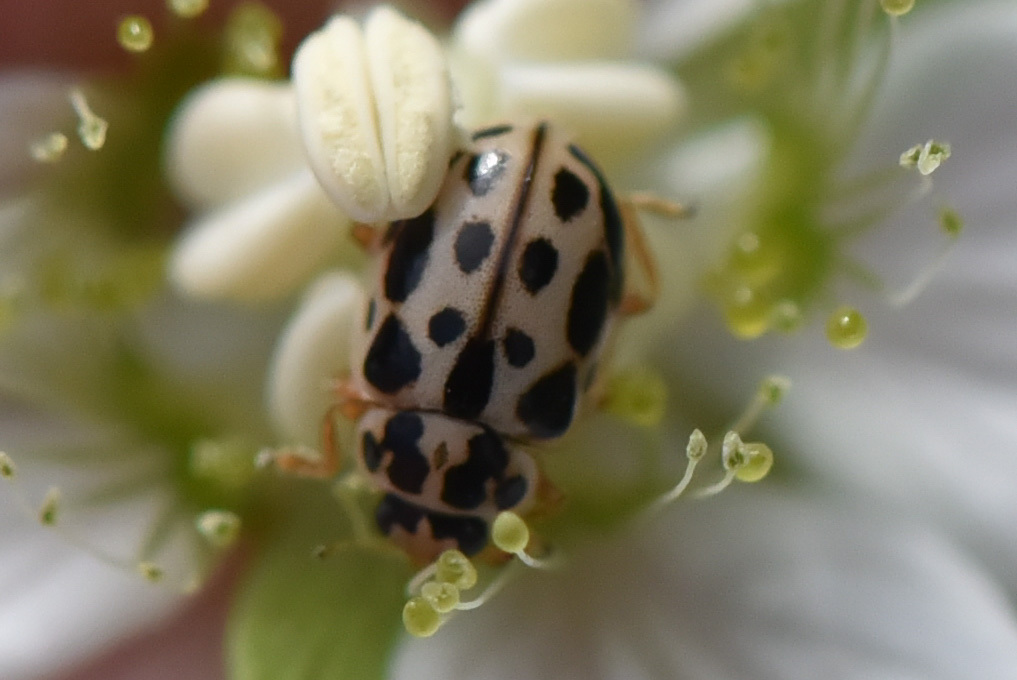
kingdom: Animalia
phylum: Arthropoda
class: Insecta
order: Coleoptera
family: Coccinellidae
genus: Anisosticta
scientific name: Anisosticta bitriangularis
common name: Marsh lady beetle
